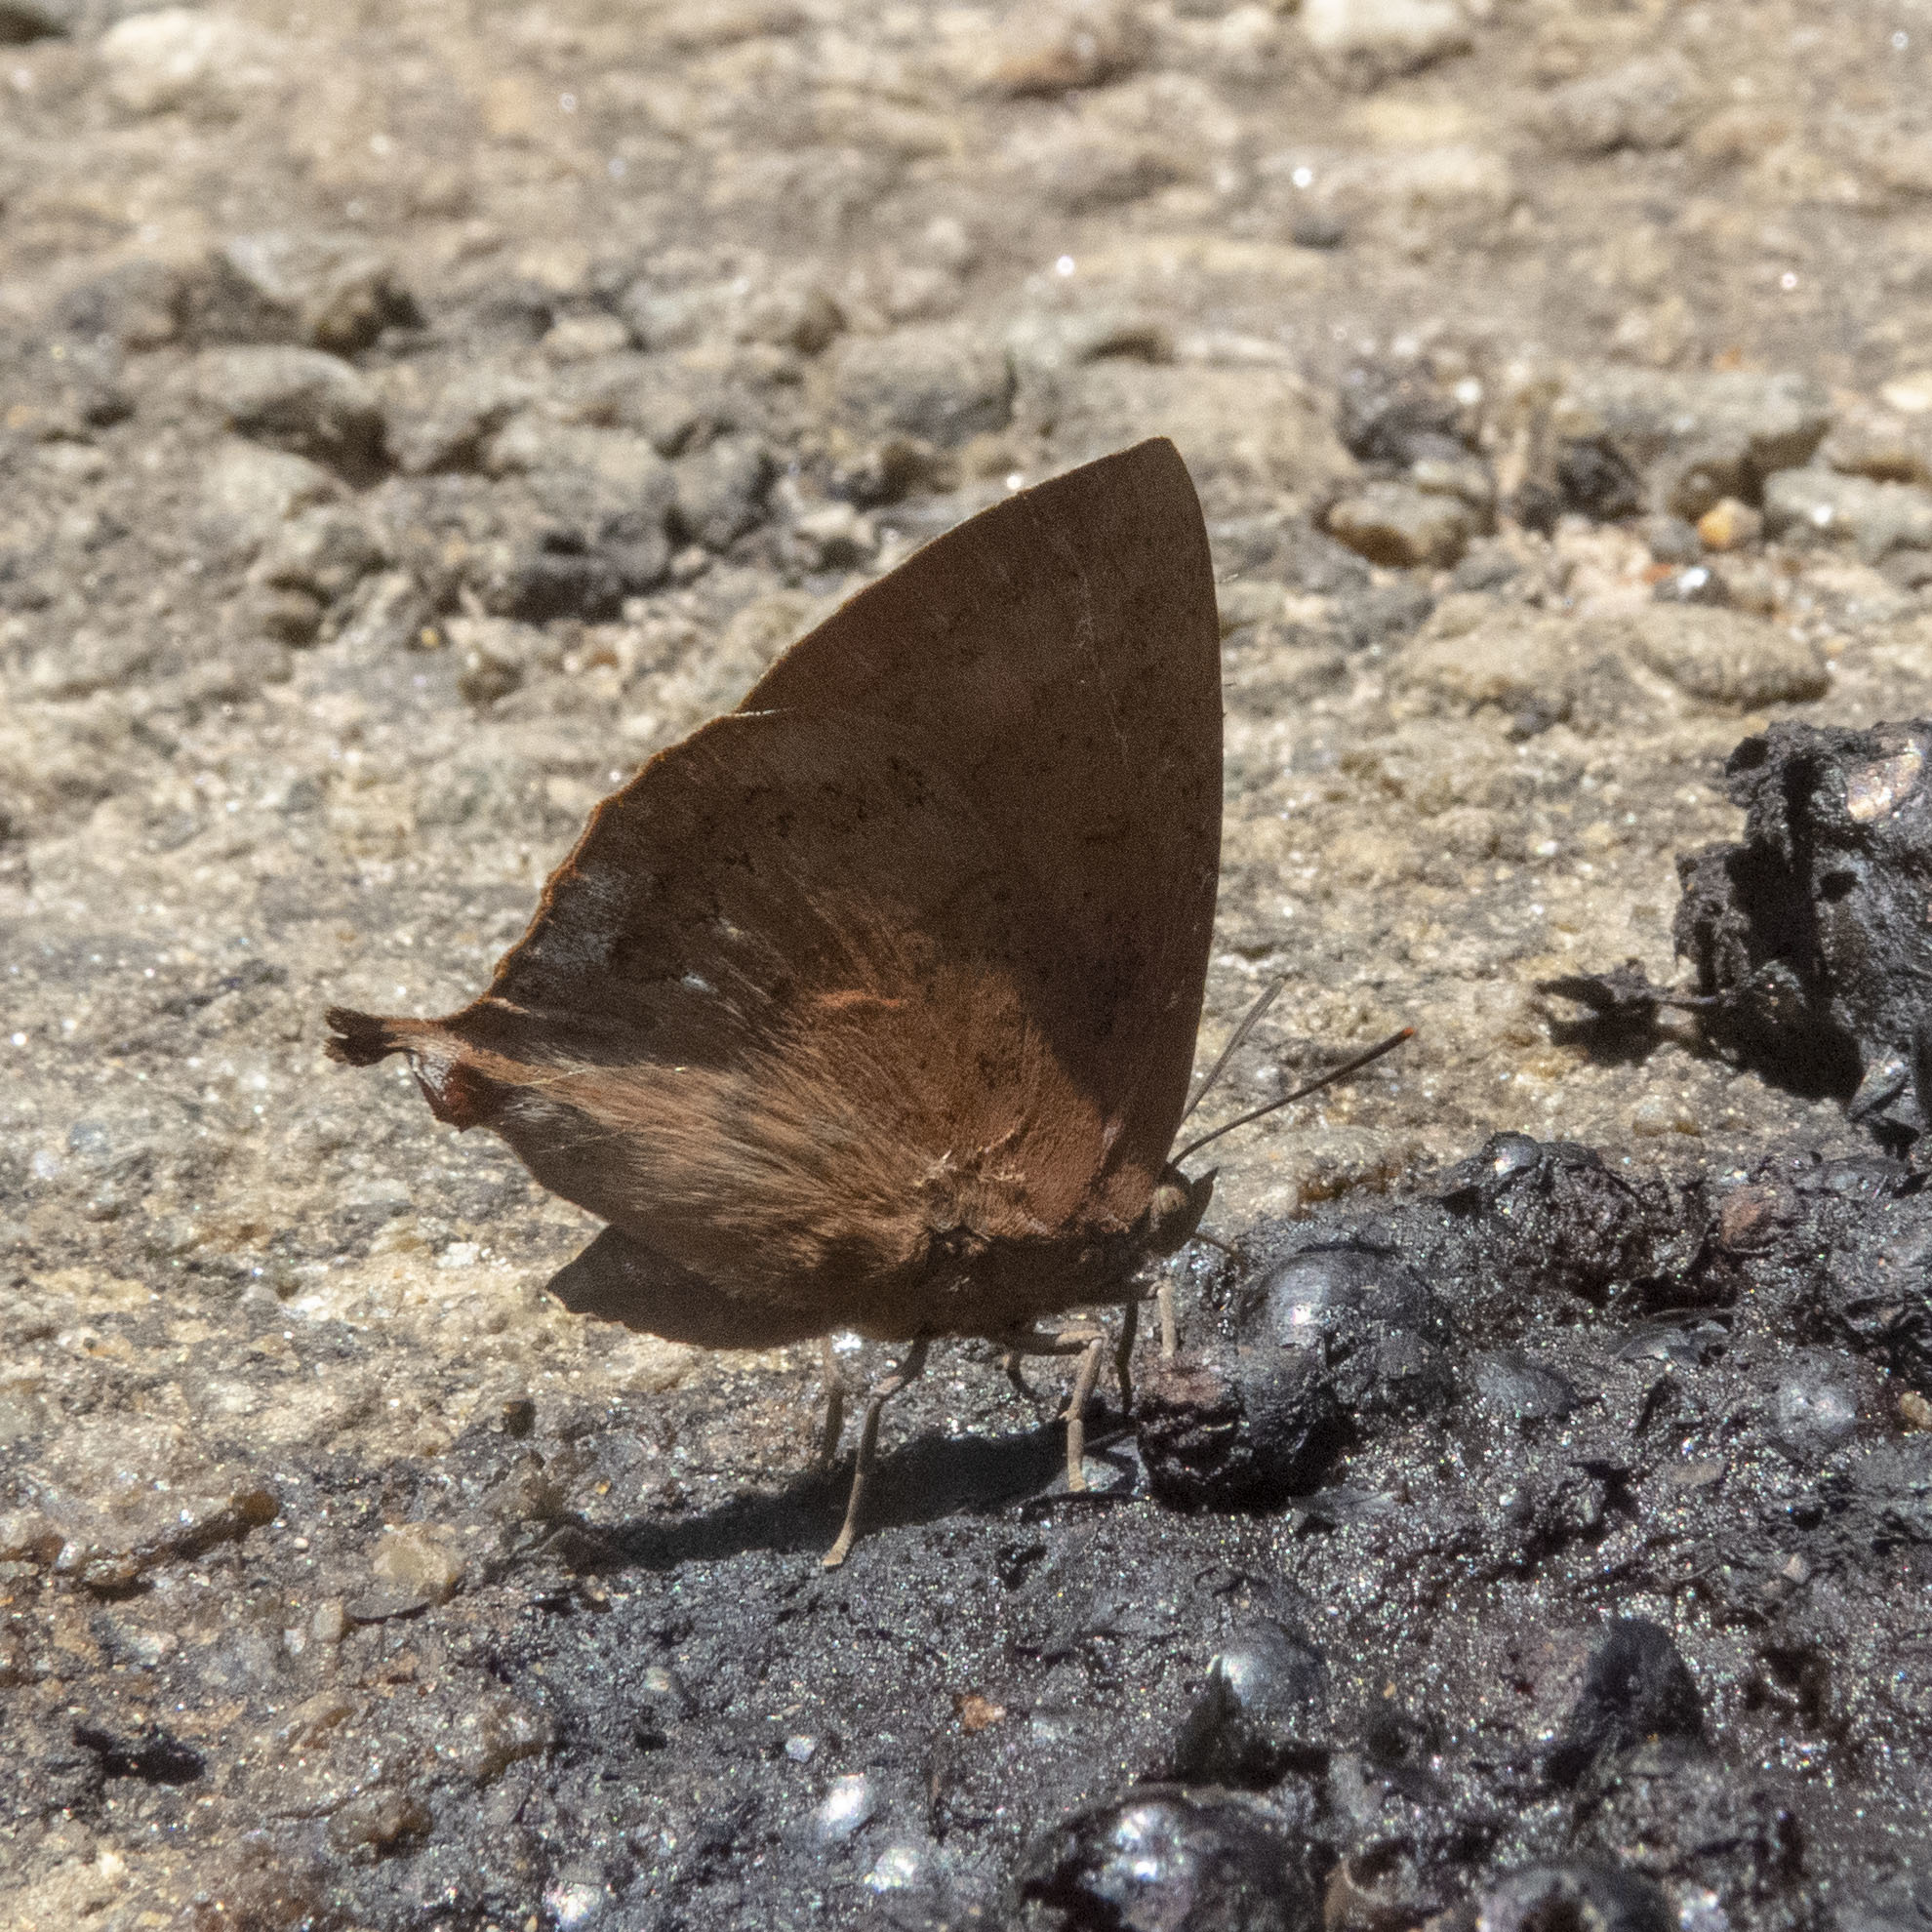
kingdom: Animalia
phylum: Arthropoda
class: Insecta
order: Lepidoptera
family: Lycaenidae
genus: Amblypodia
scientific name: Amblypodia anita
